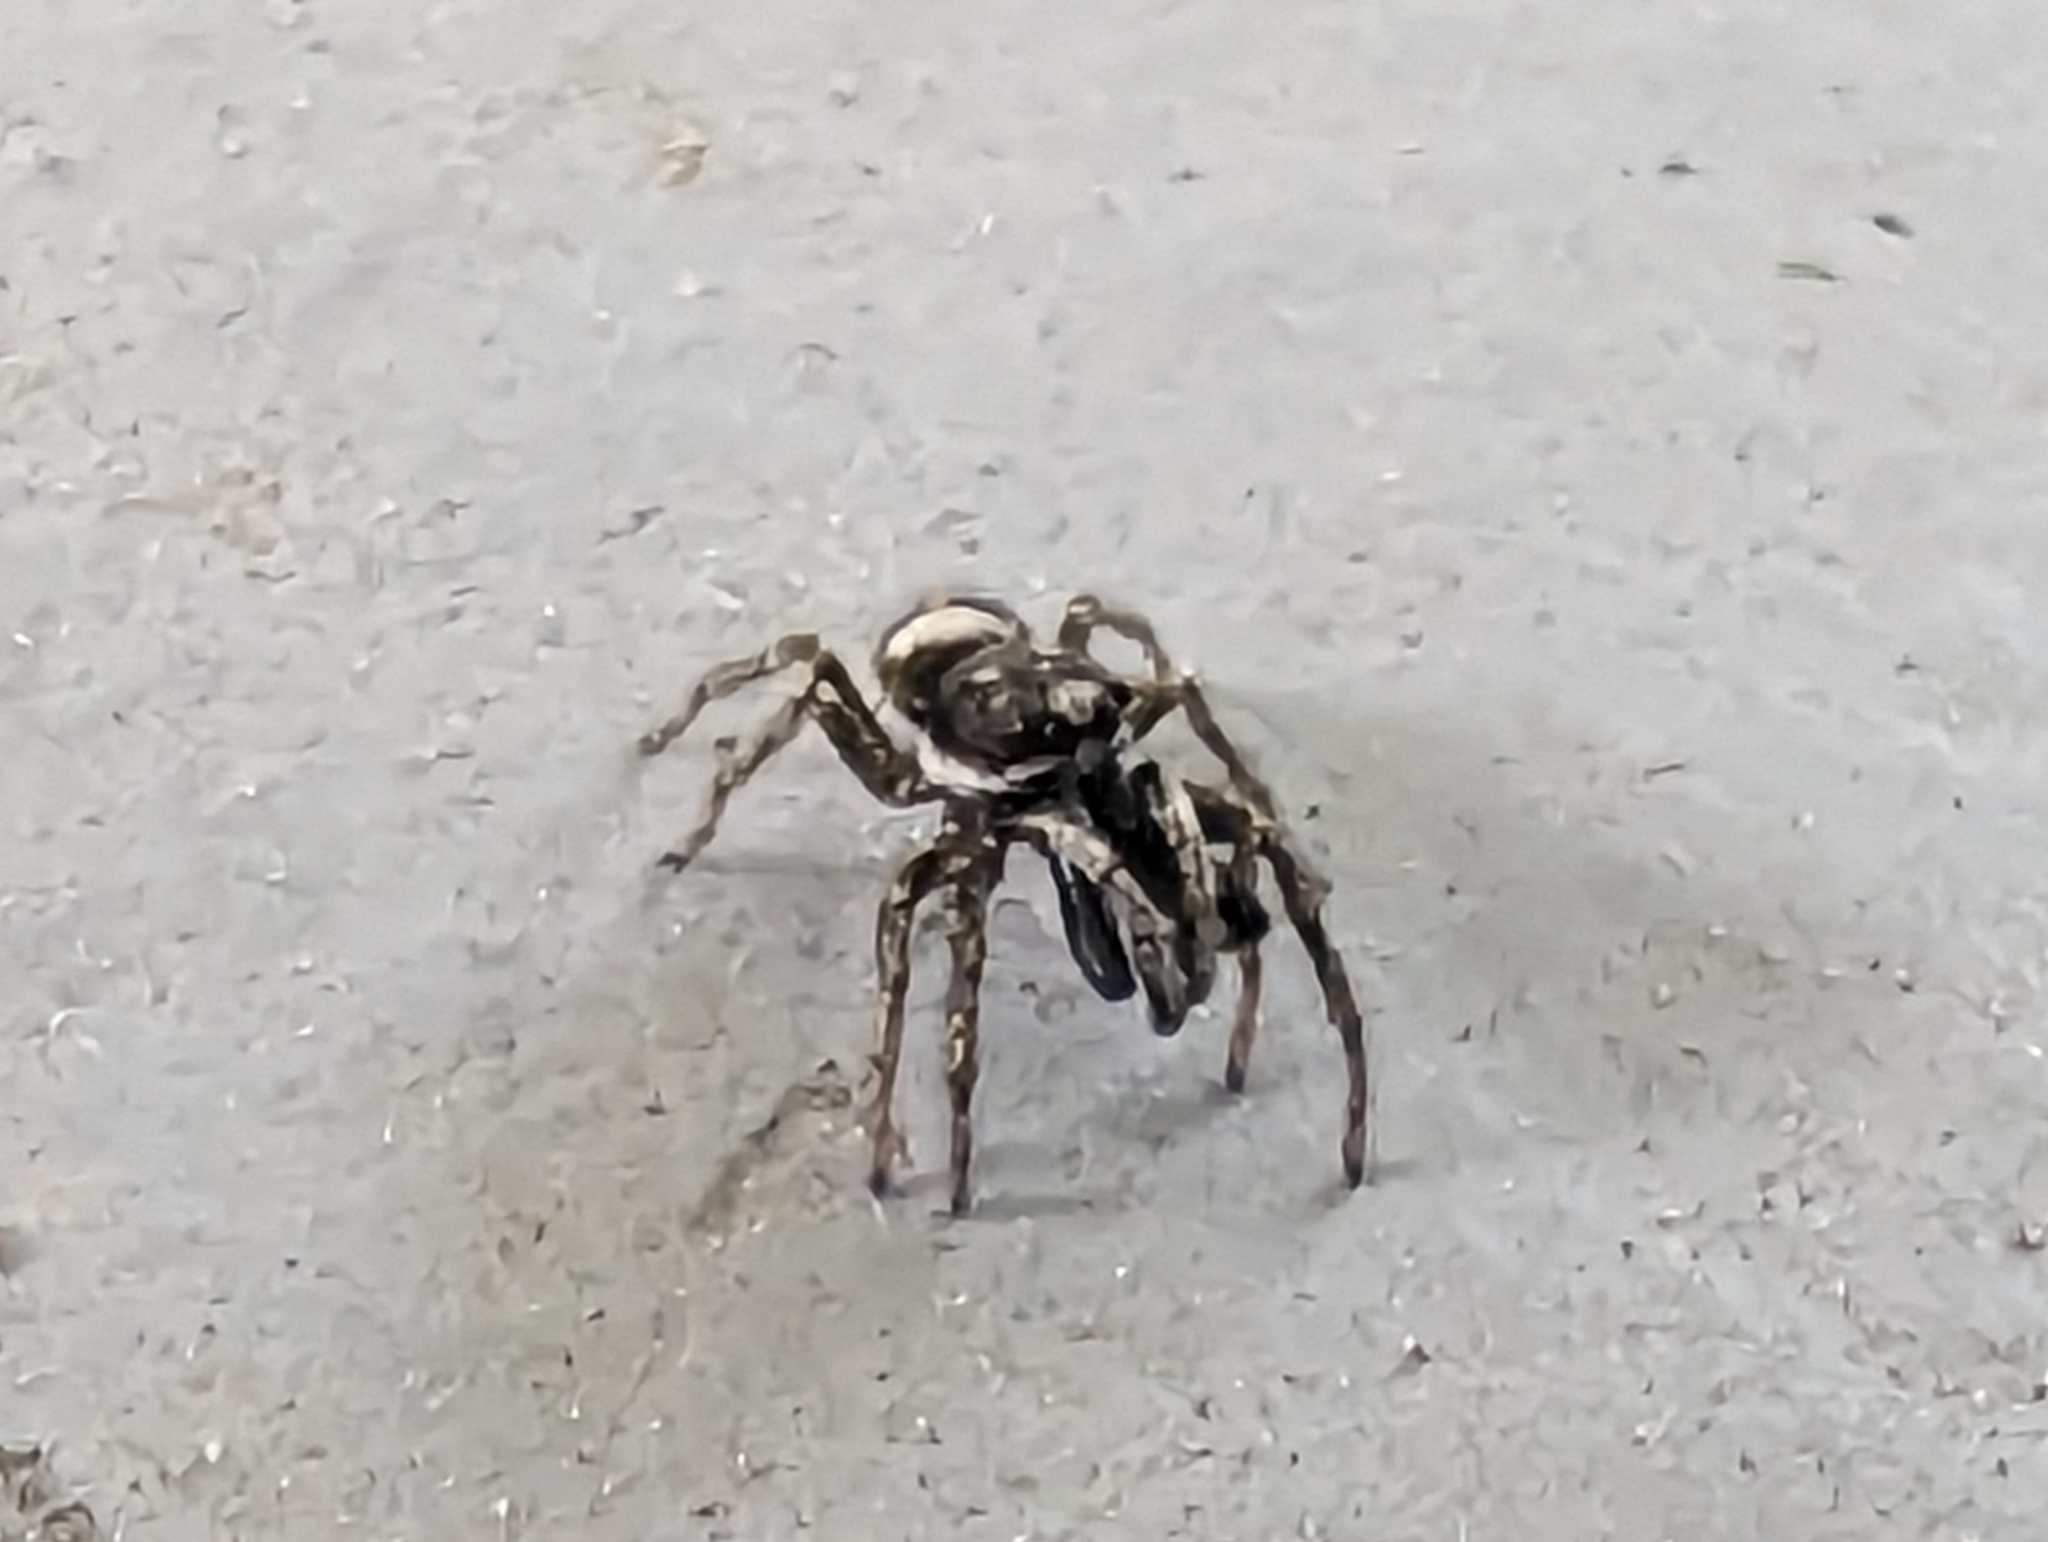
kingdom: Animalia
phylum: Arthropoda
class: Arachnida
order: Araneae
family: Salticidae
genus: Salticus
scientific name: Salticus scenicus
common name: Zebra jumper
